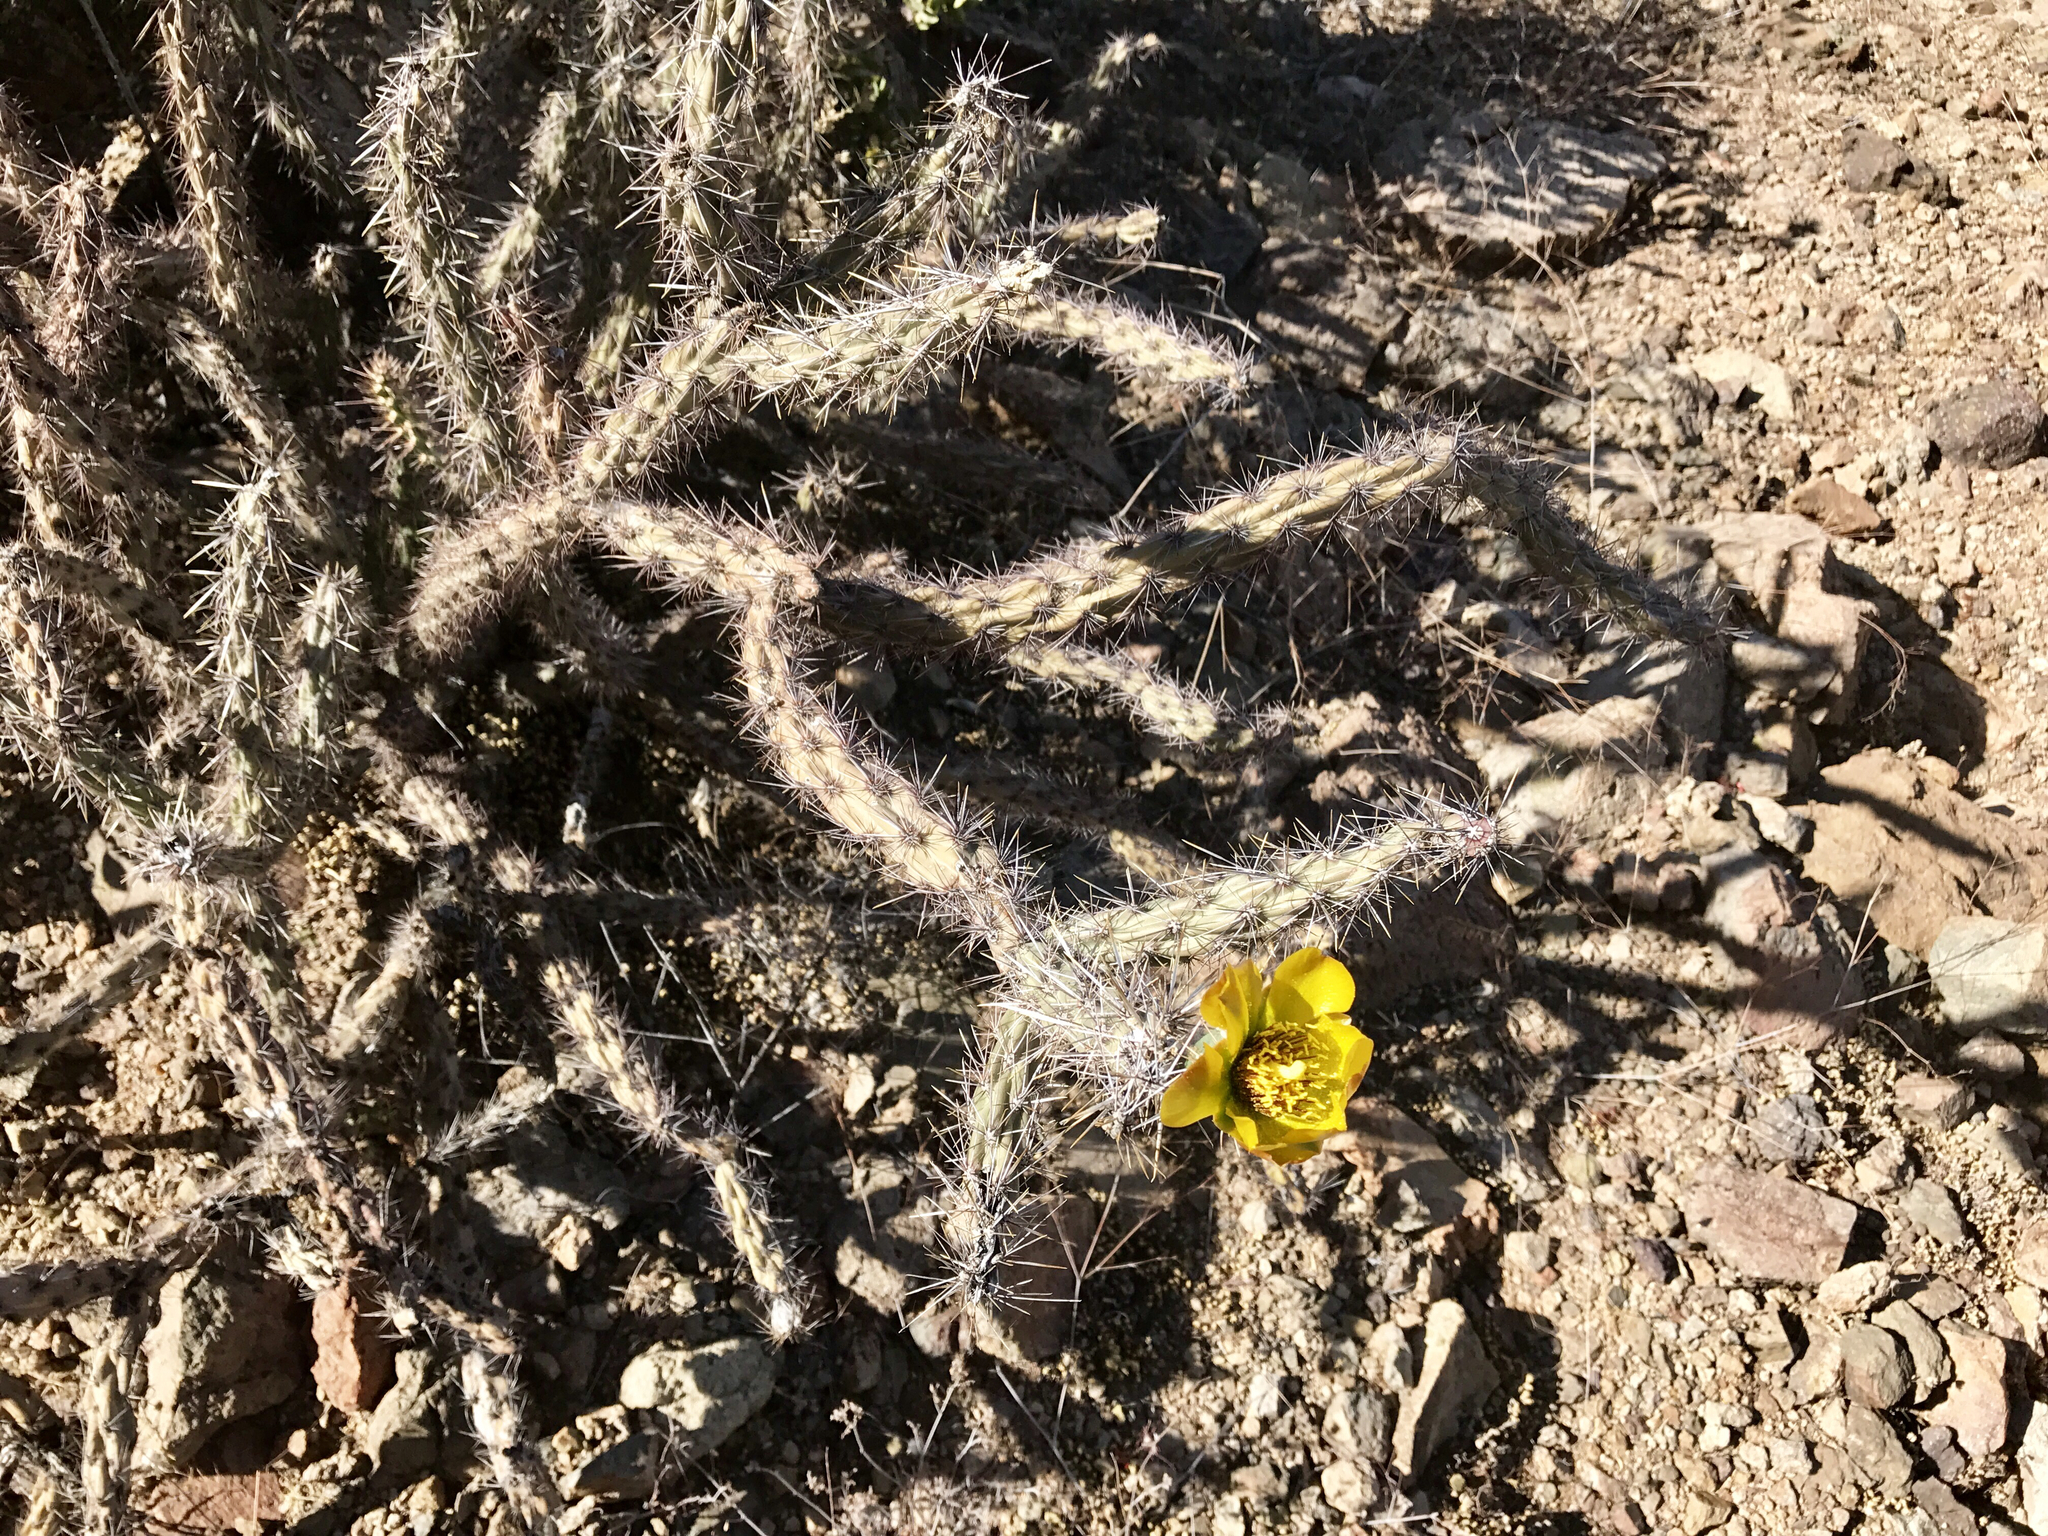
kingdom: Plantae
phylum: Tracheophyta
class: Magnoliopsida
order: Caryophyllales
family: Cactaceae
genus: Cylindropuntia
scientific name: Cylindropuntia acanthocarpa
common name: Buckhorn cholla
